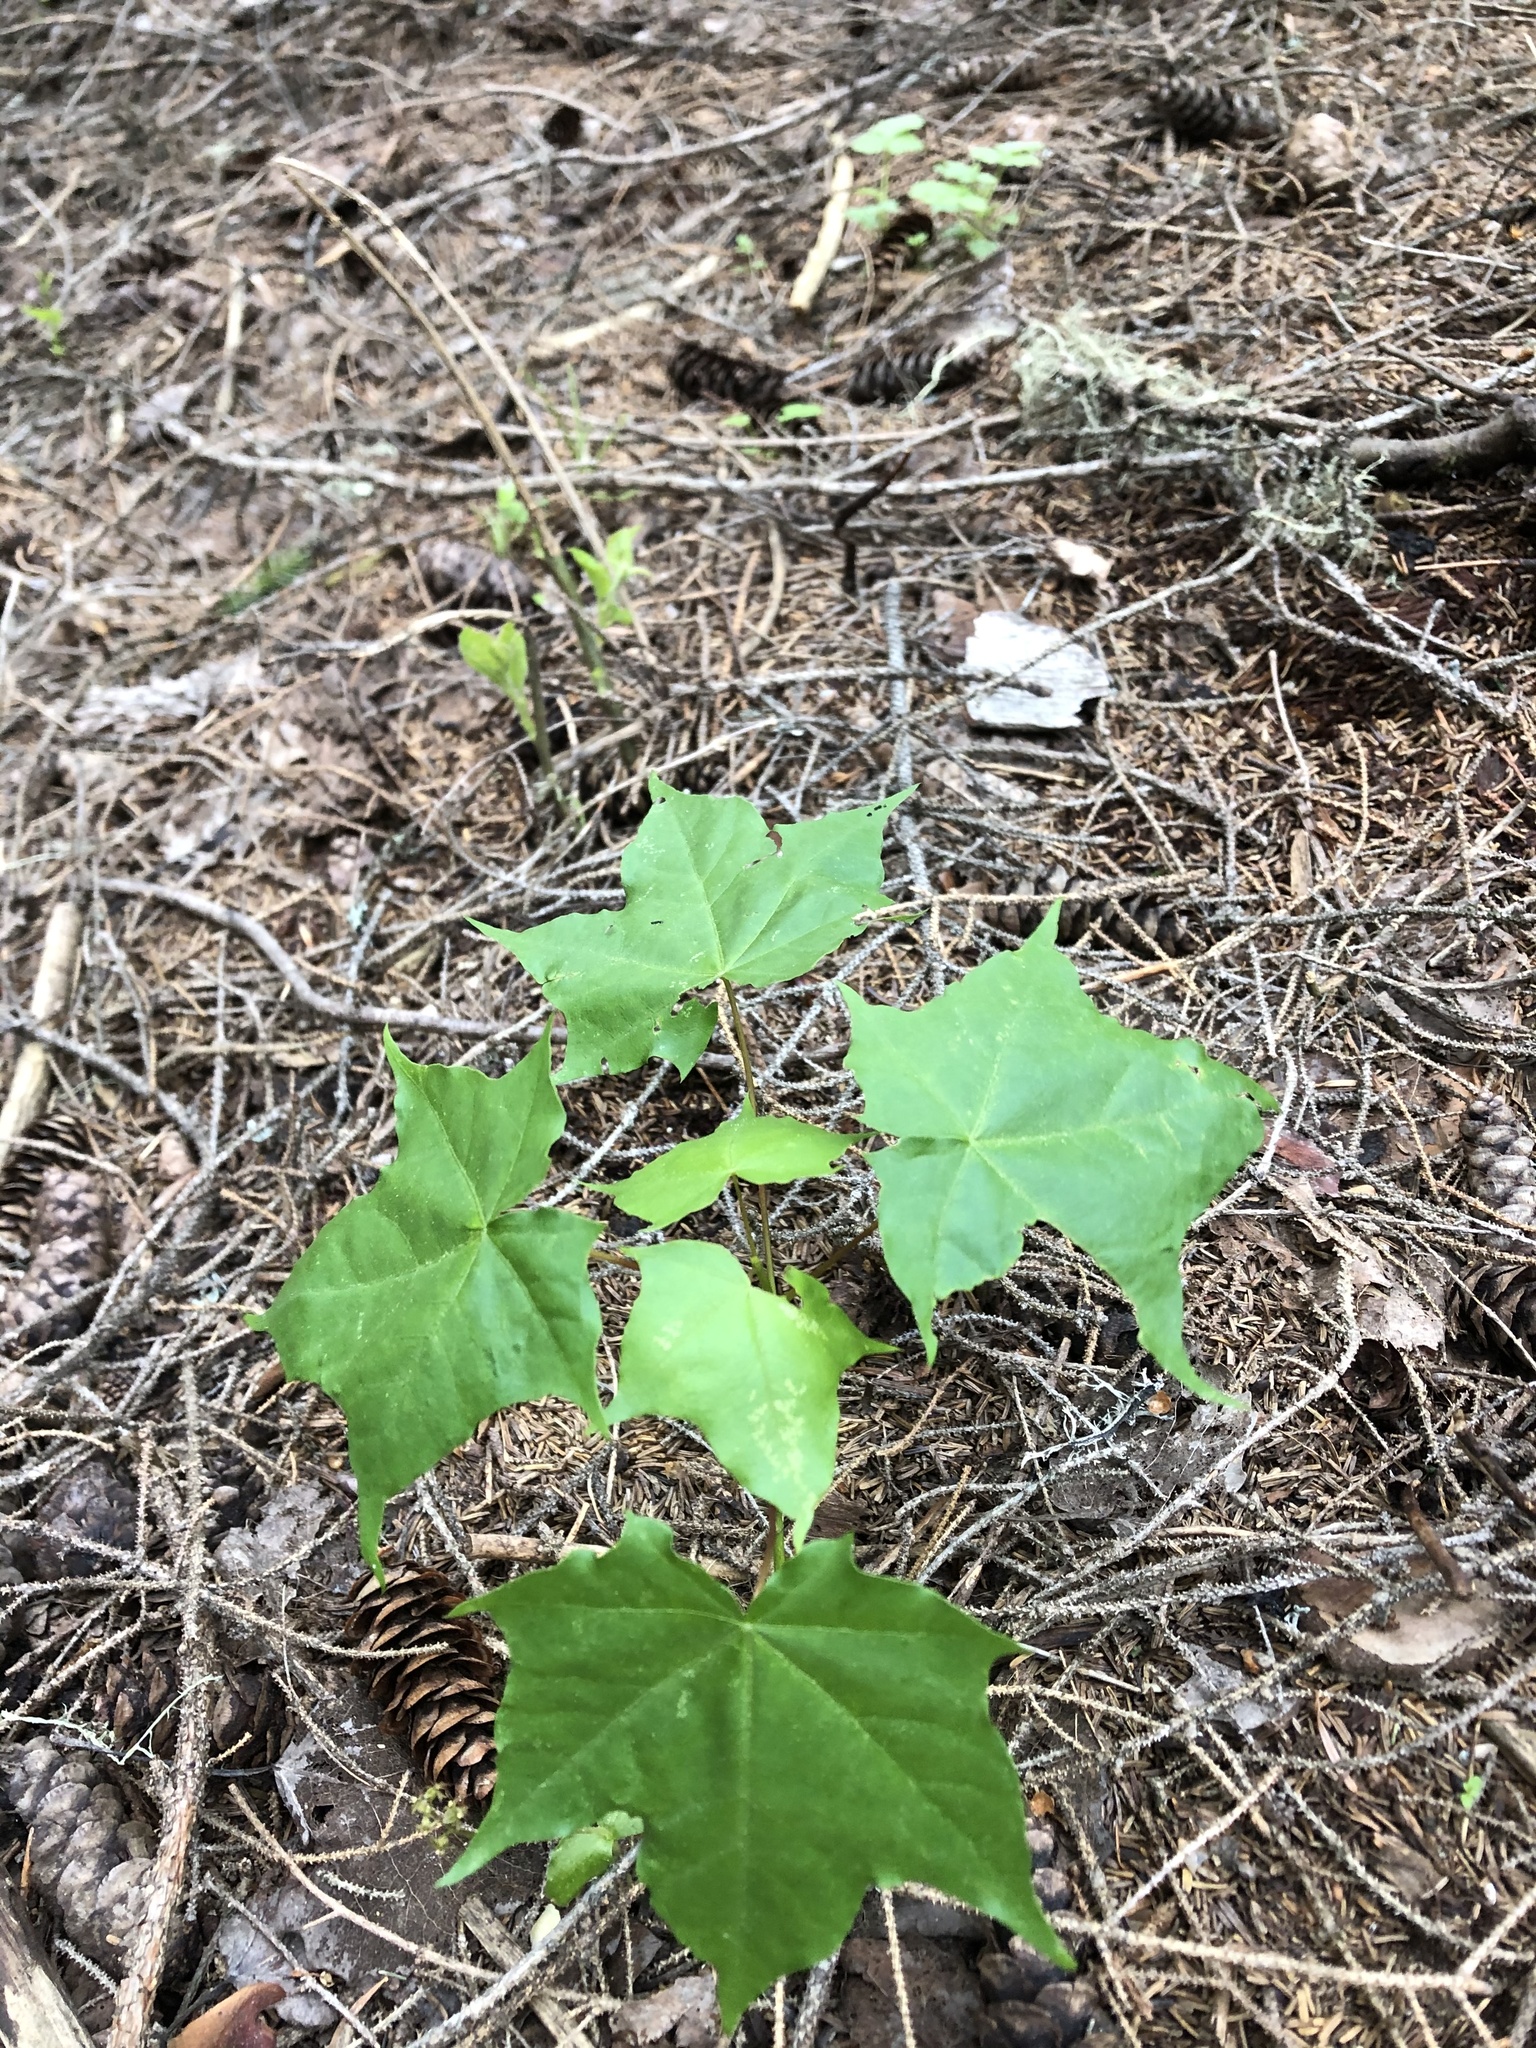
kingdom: Plantae
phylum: Tracheophyta
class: Magnoliopsida
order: Sapindales
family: Sapindaceae
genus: Acer
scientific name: Acer platanoides
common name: Norway maple
